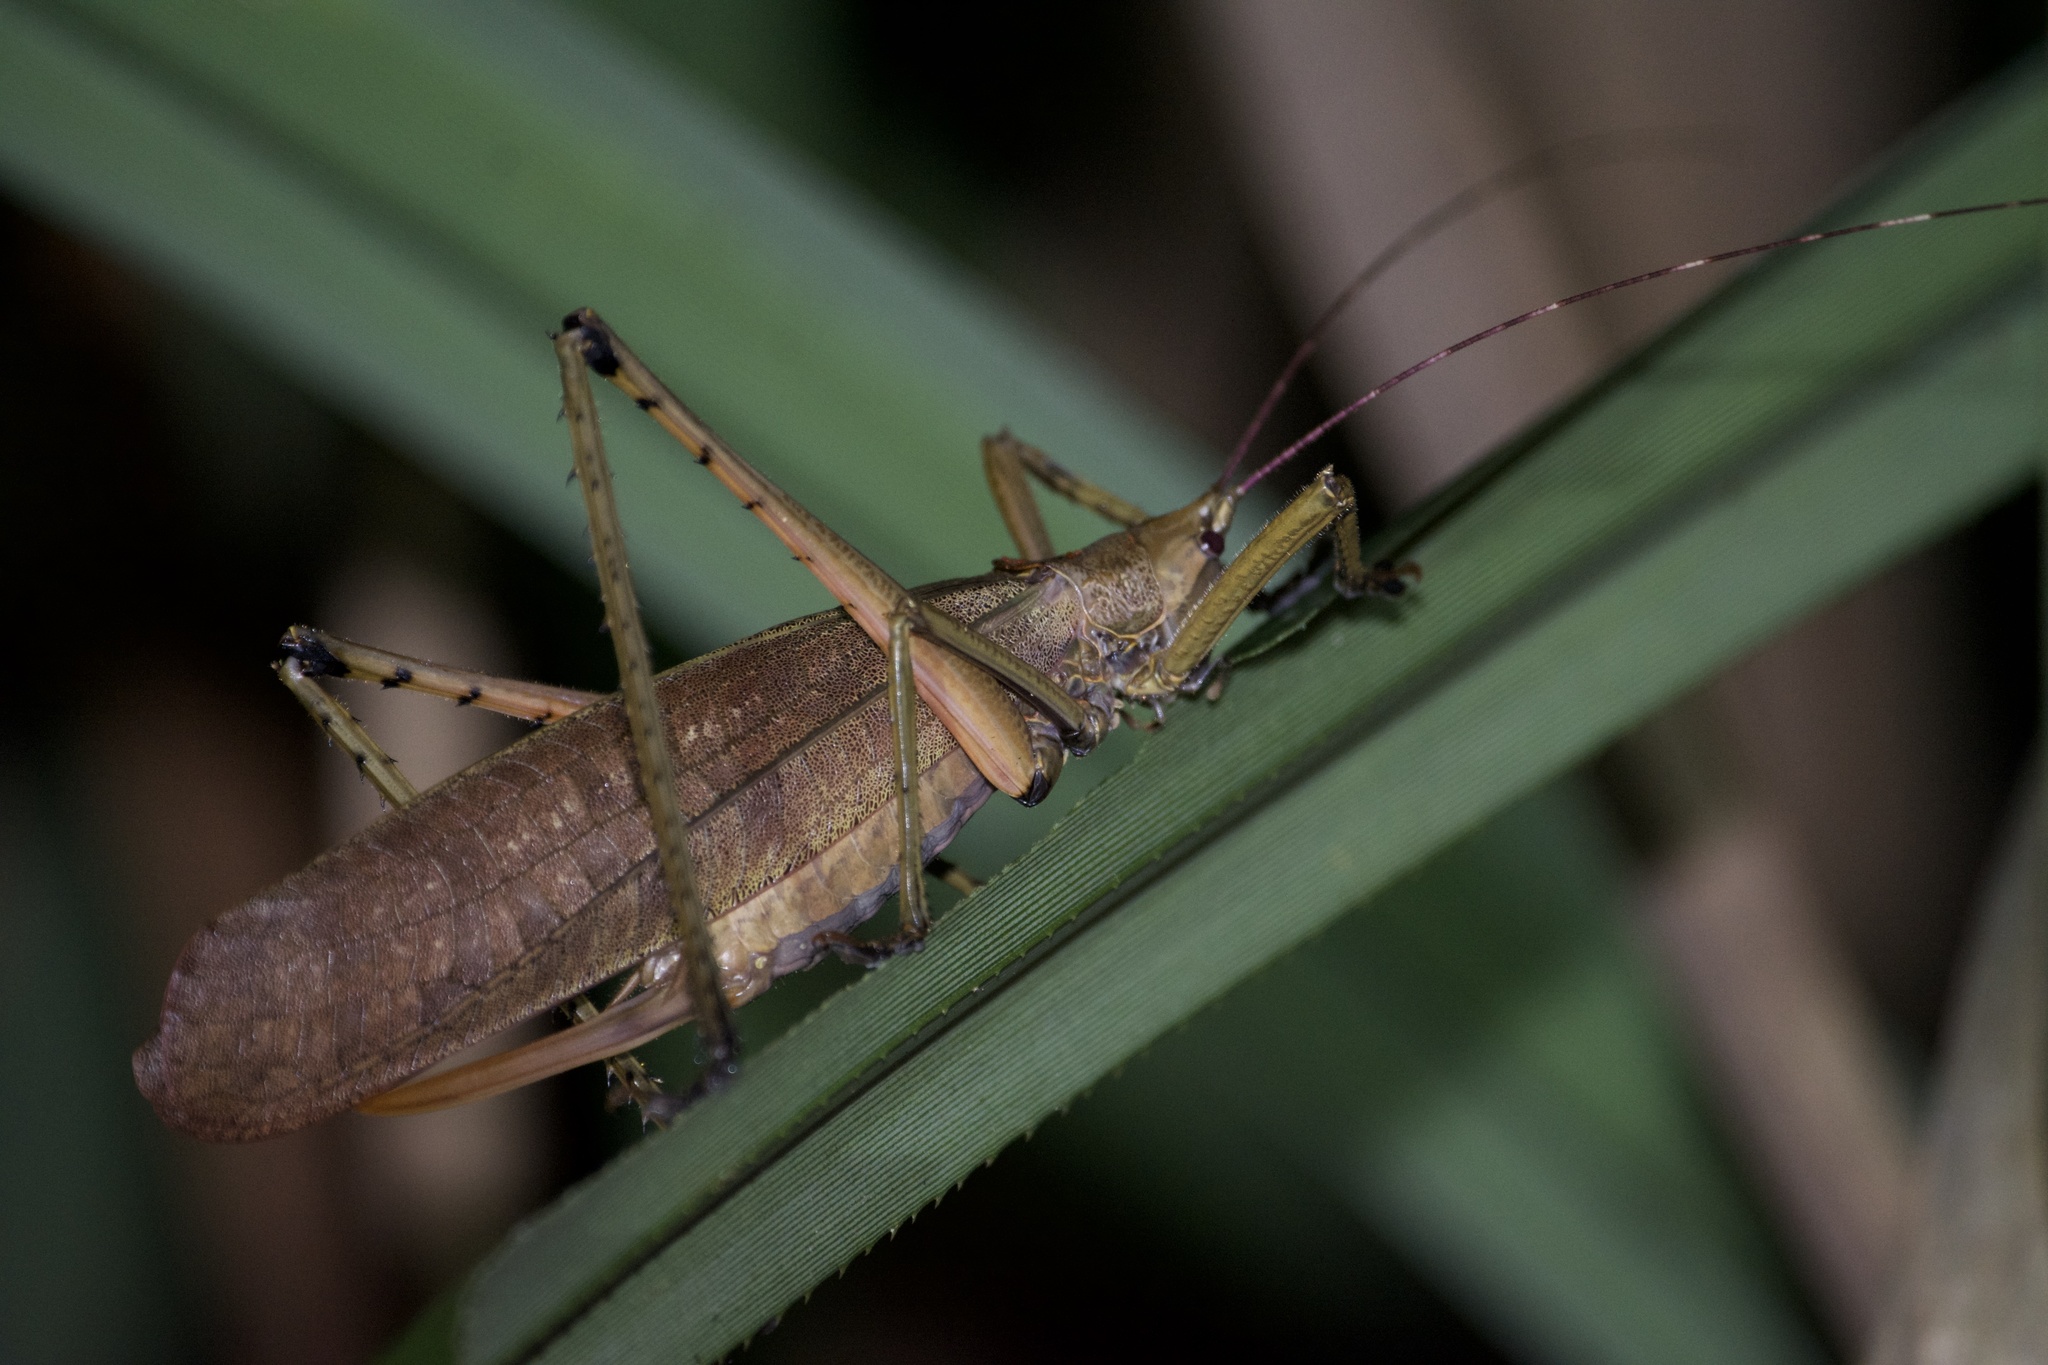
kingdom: Animalia
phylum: Arthropoda
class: Insecta
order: Orthoptera
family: Tettigoniidae
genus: Segestidea
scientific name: Segestidea queenslandica
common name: Queensland palm katydid
